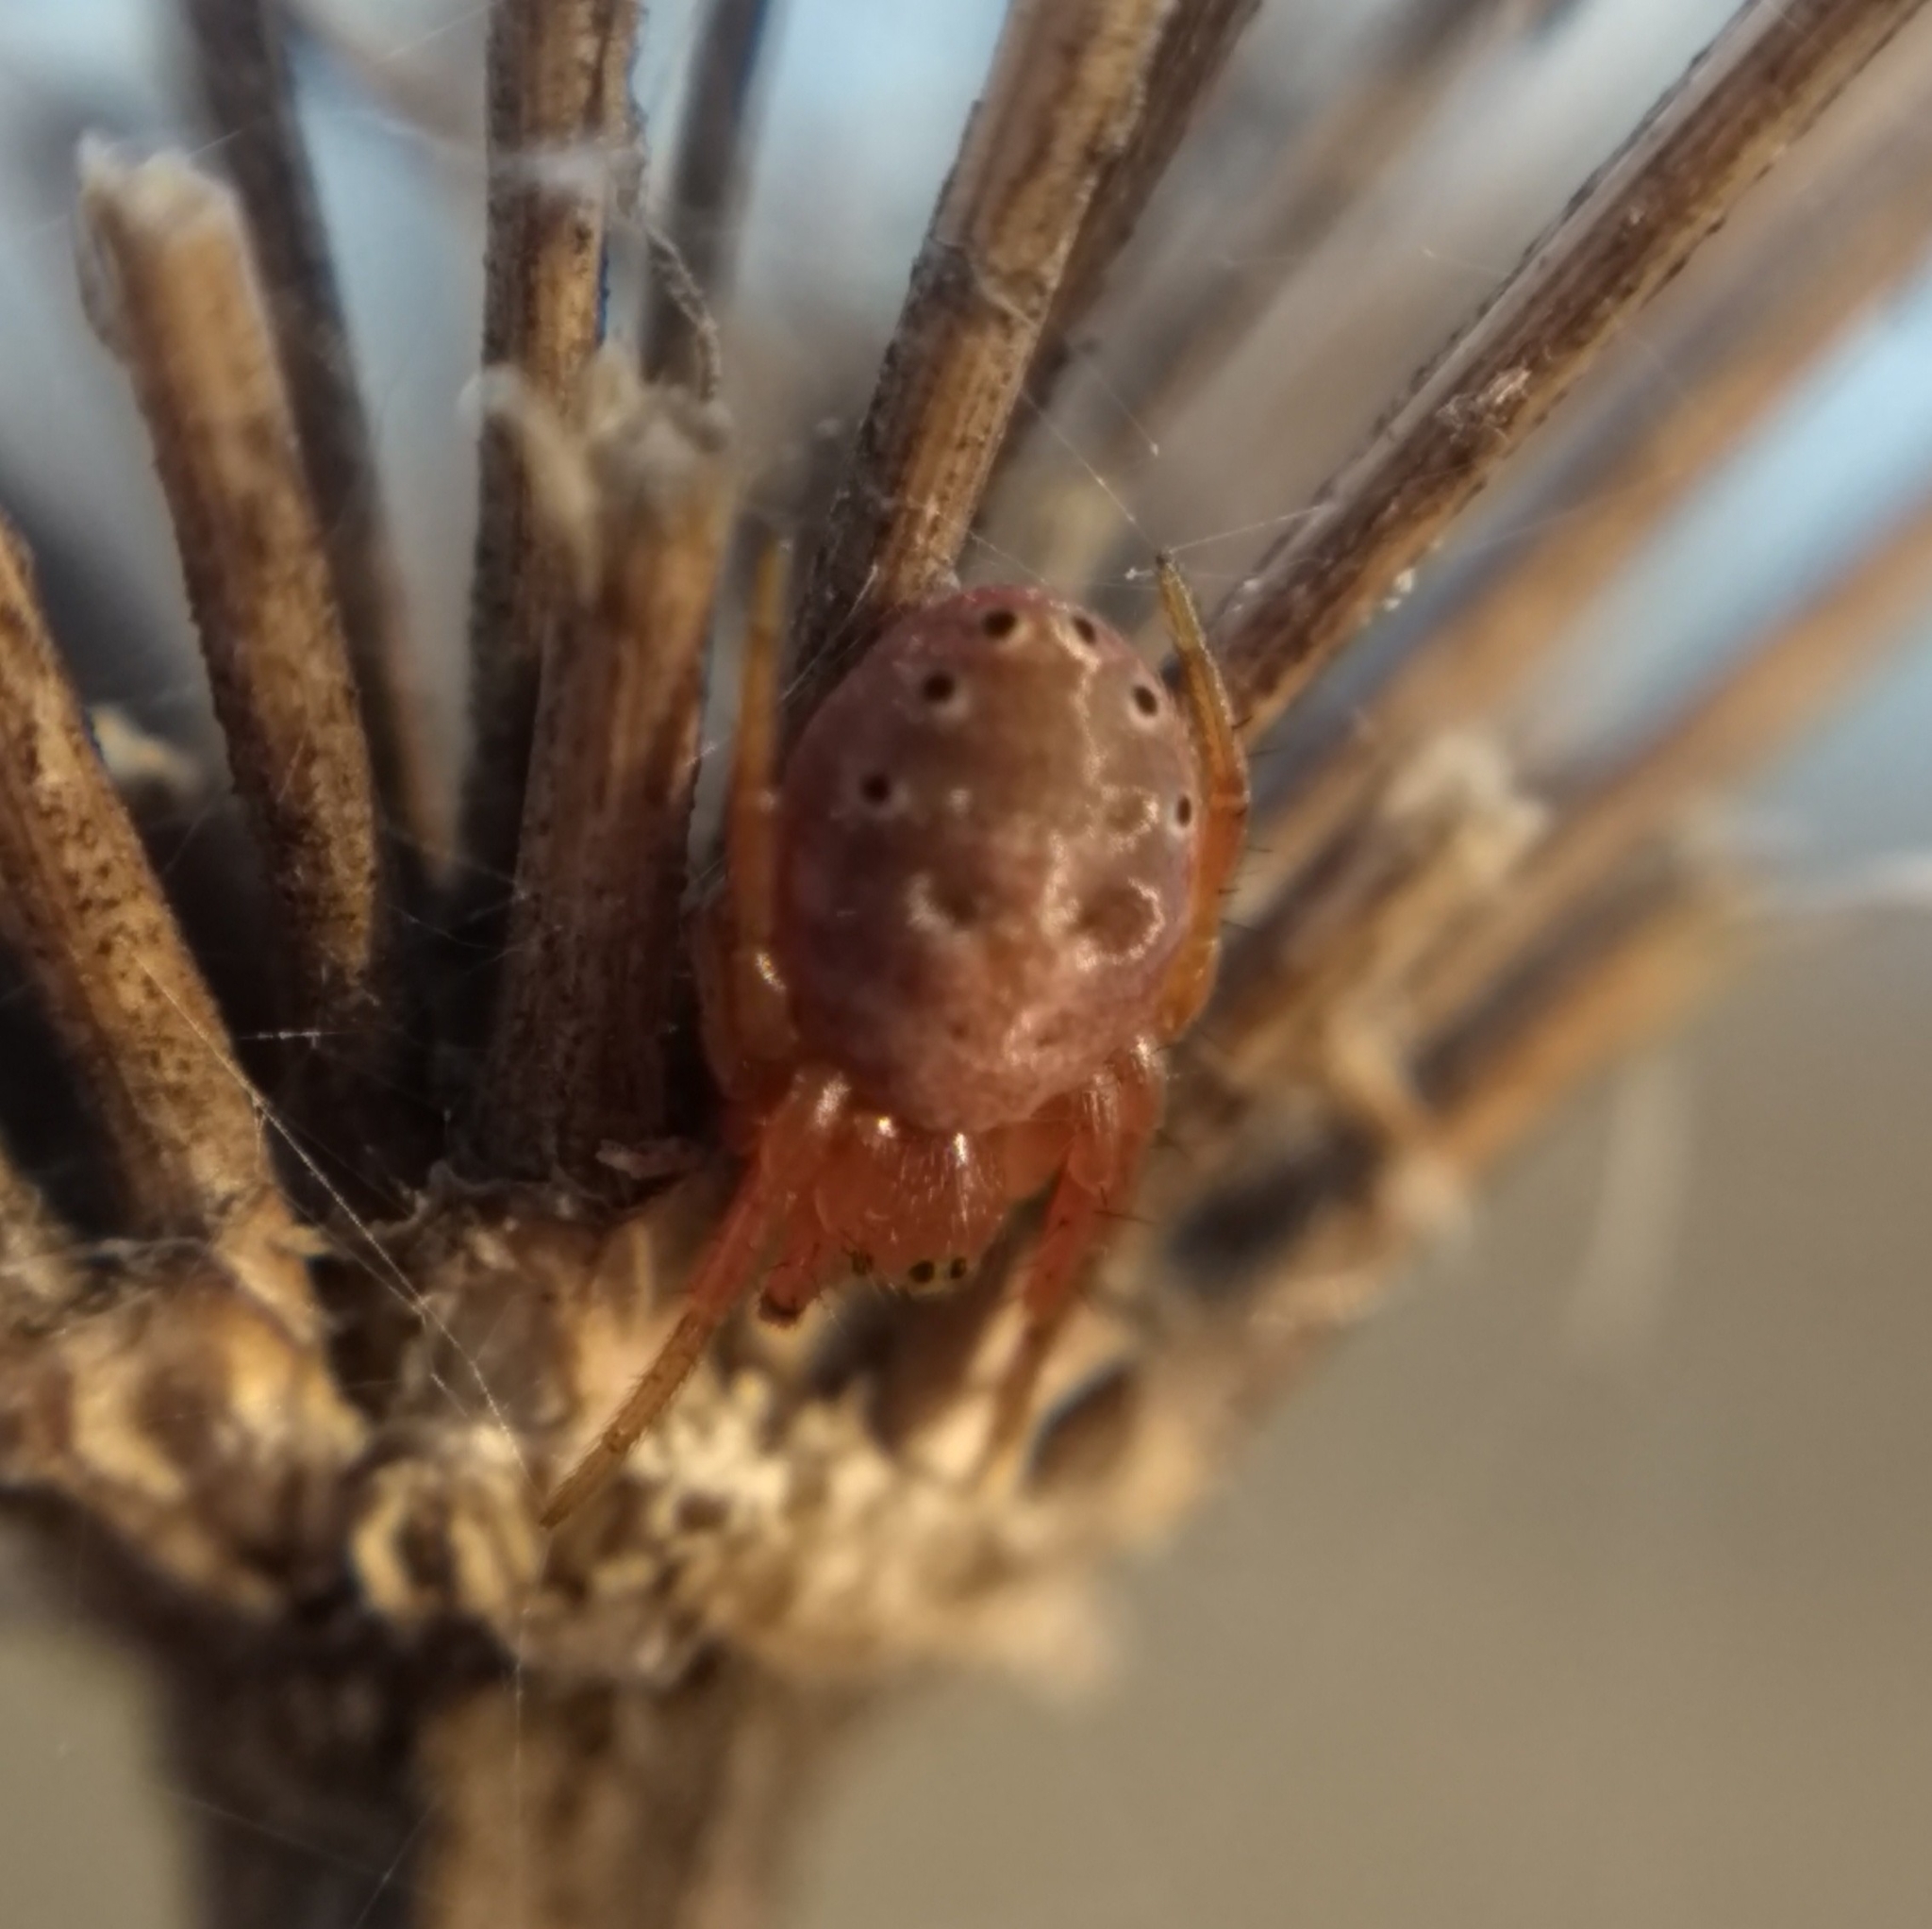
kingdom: Animalia
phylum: Arthropoda
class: Arachnida
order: Araneae
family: Araneidae
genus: Araniella
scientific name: Araniella displicata
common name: Sixspotted orb weaver
